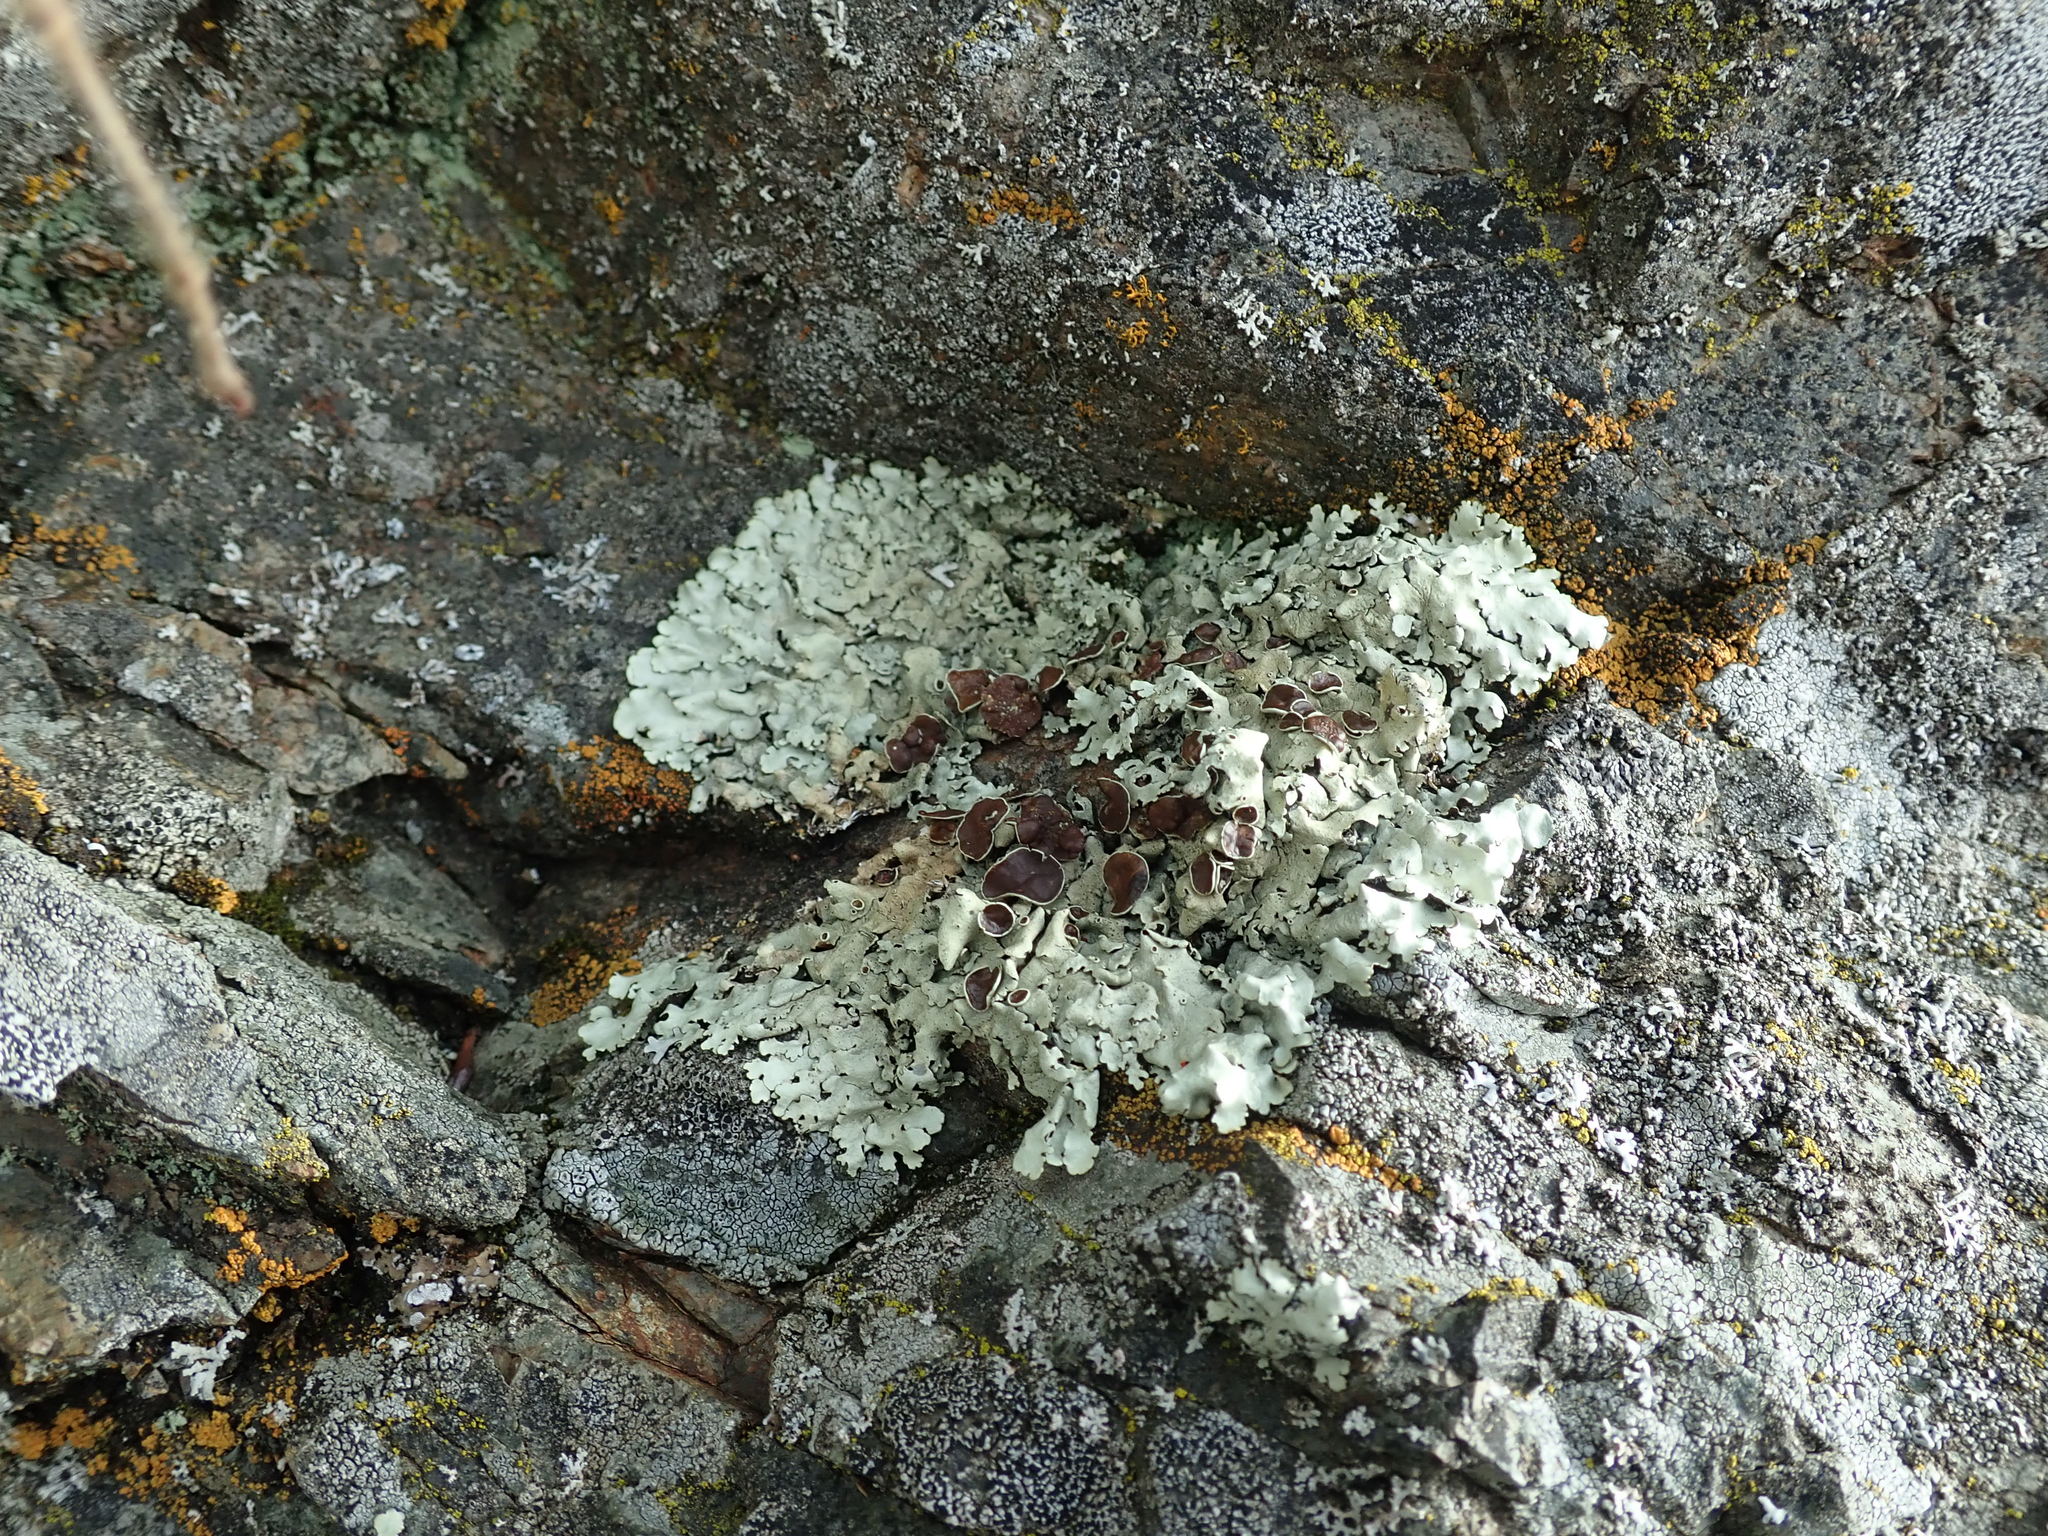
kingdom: Fungi
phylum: Ascomycota
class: Lecanoromycetes
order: Lecanorales
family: Parmeliaceae
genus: Xanthoparmelia
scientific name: Xanthoparmelia cumberlandia
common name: Cumberland rock shield
